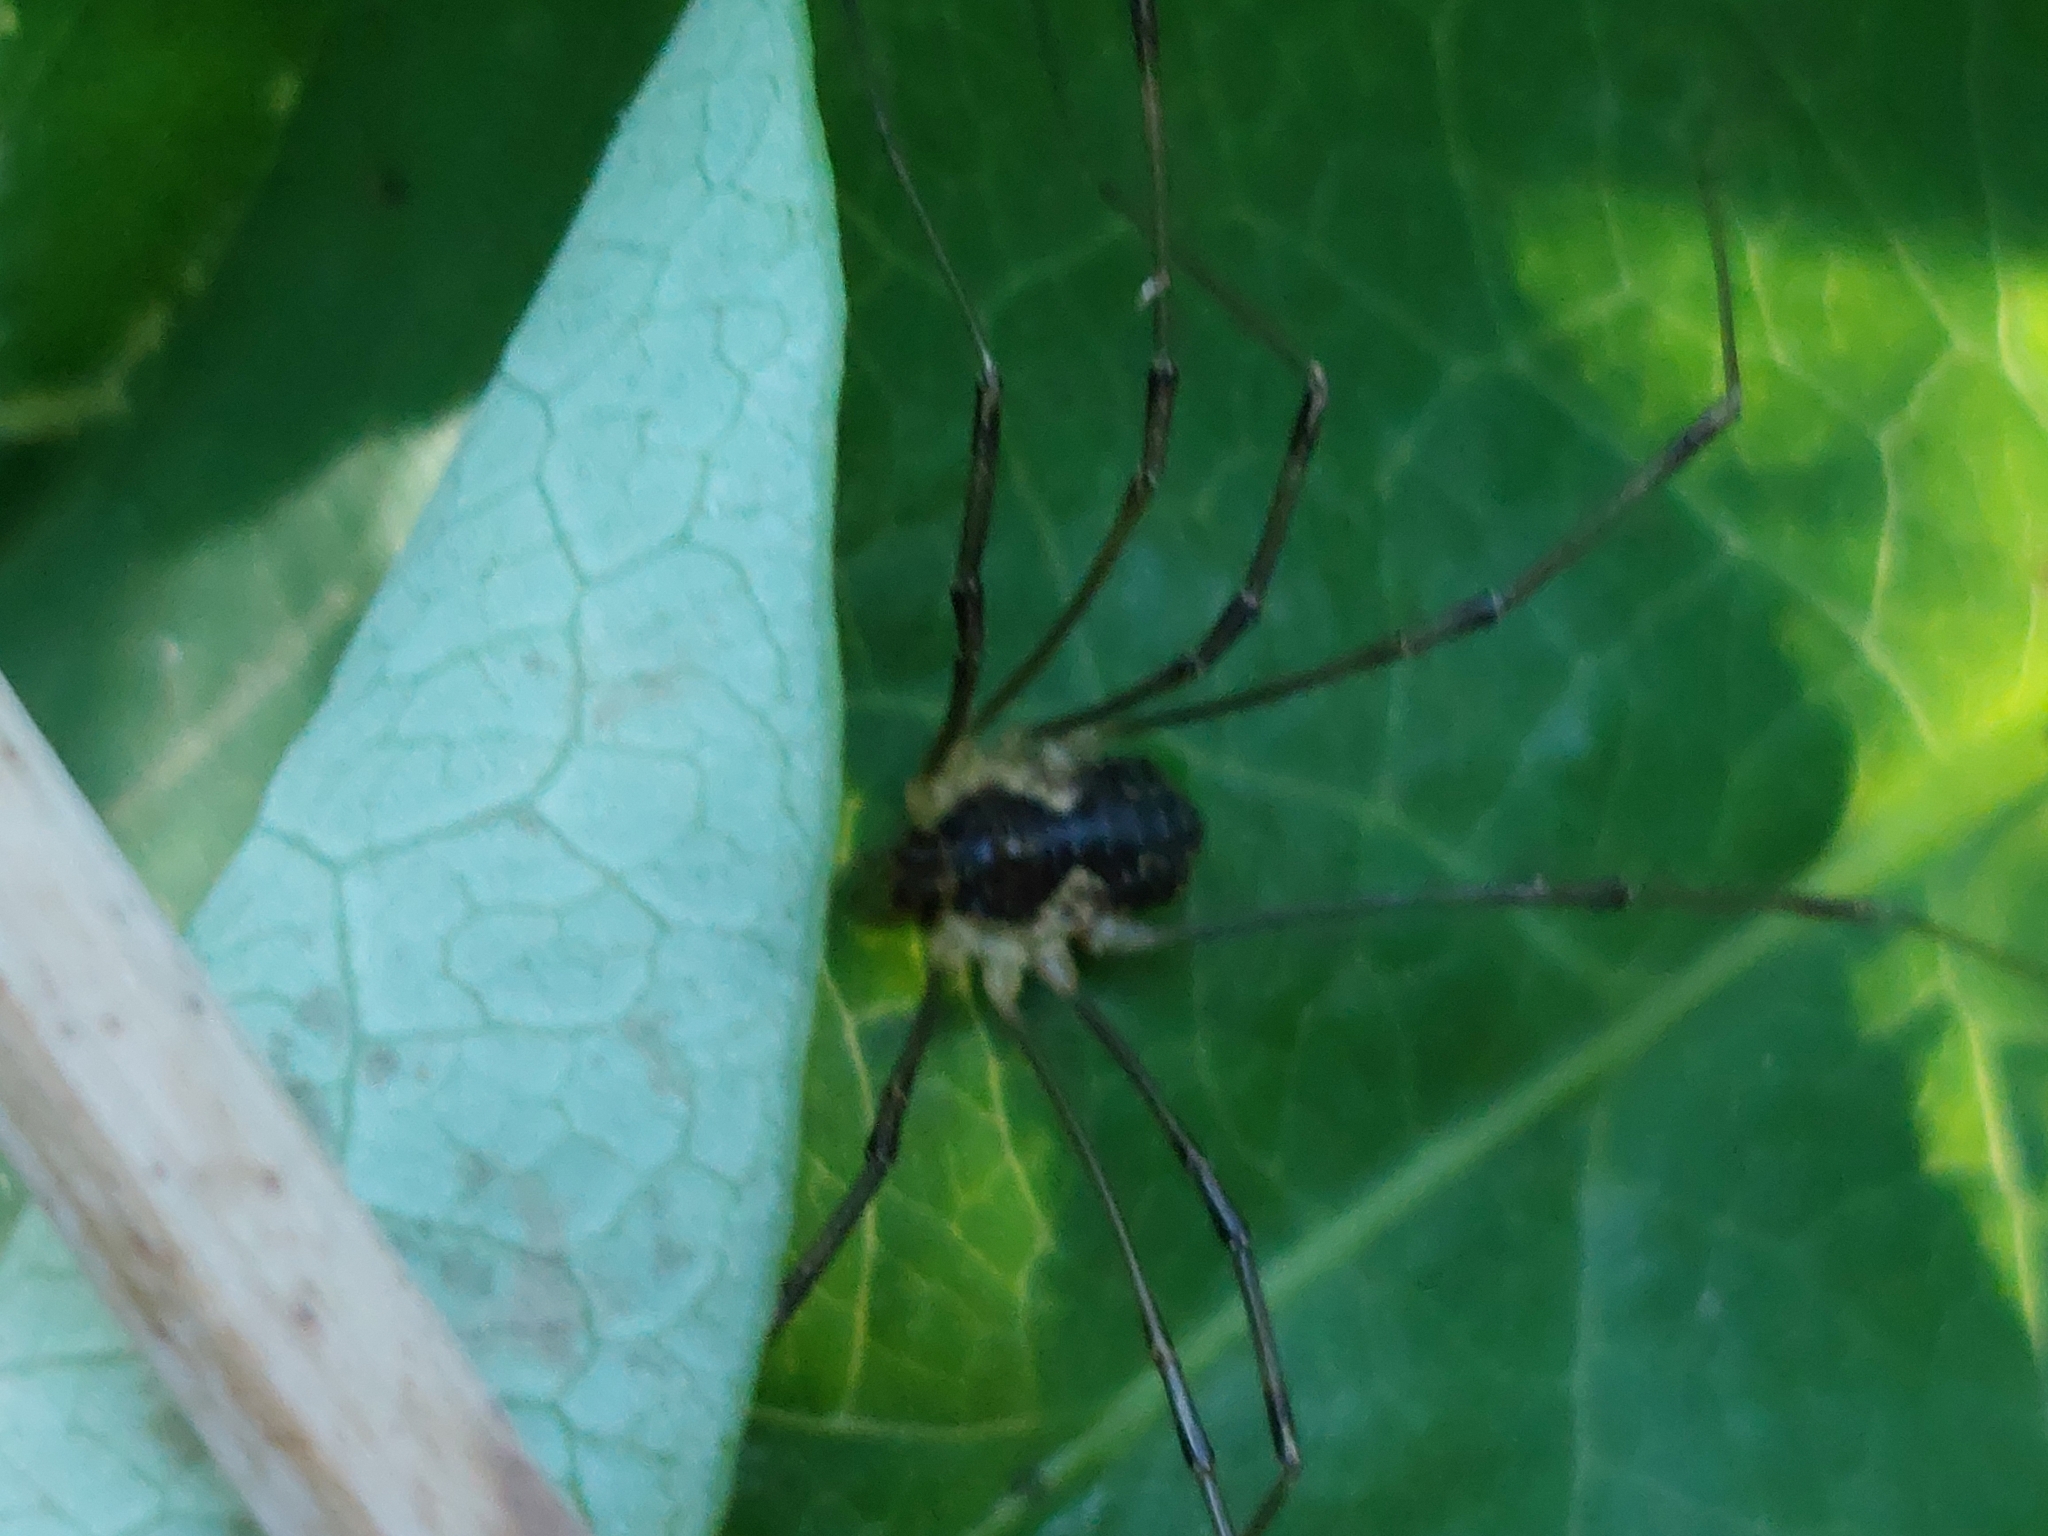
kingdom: Animalia
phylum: Arthropoda
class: Arachnida
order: Opiliones
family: Phalangiidae
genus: Mitopus
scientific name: Mitopus morio
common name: Saddleback harvestman
